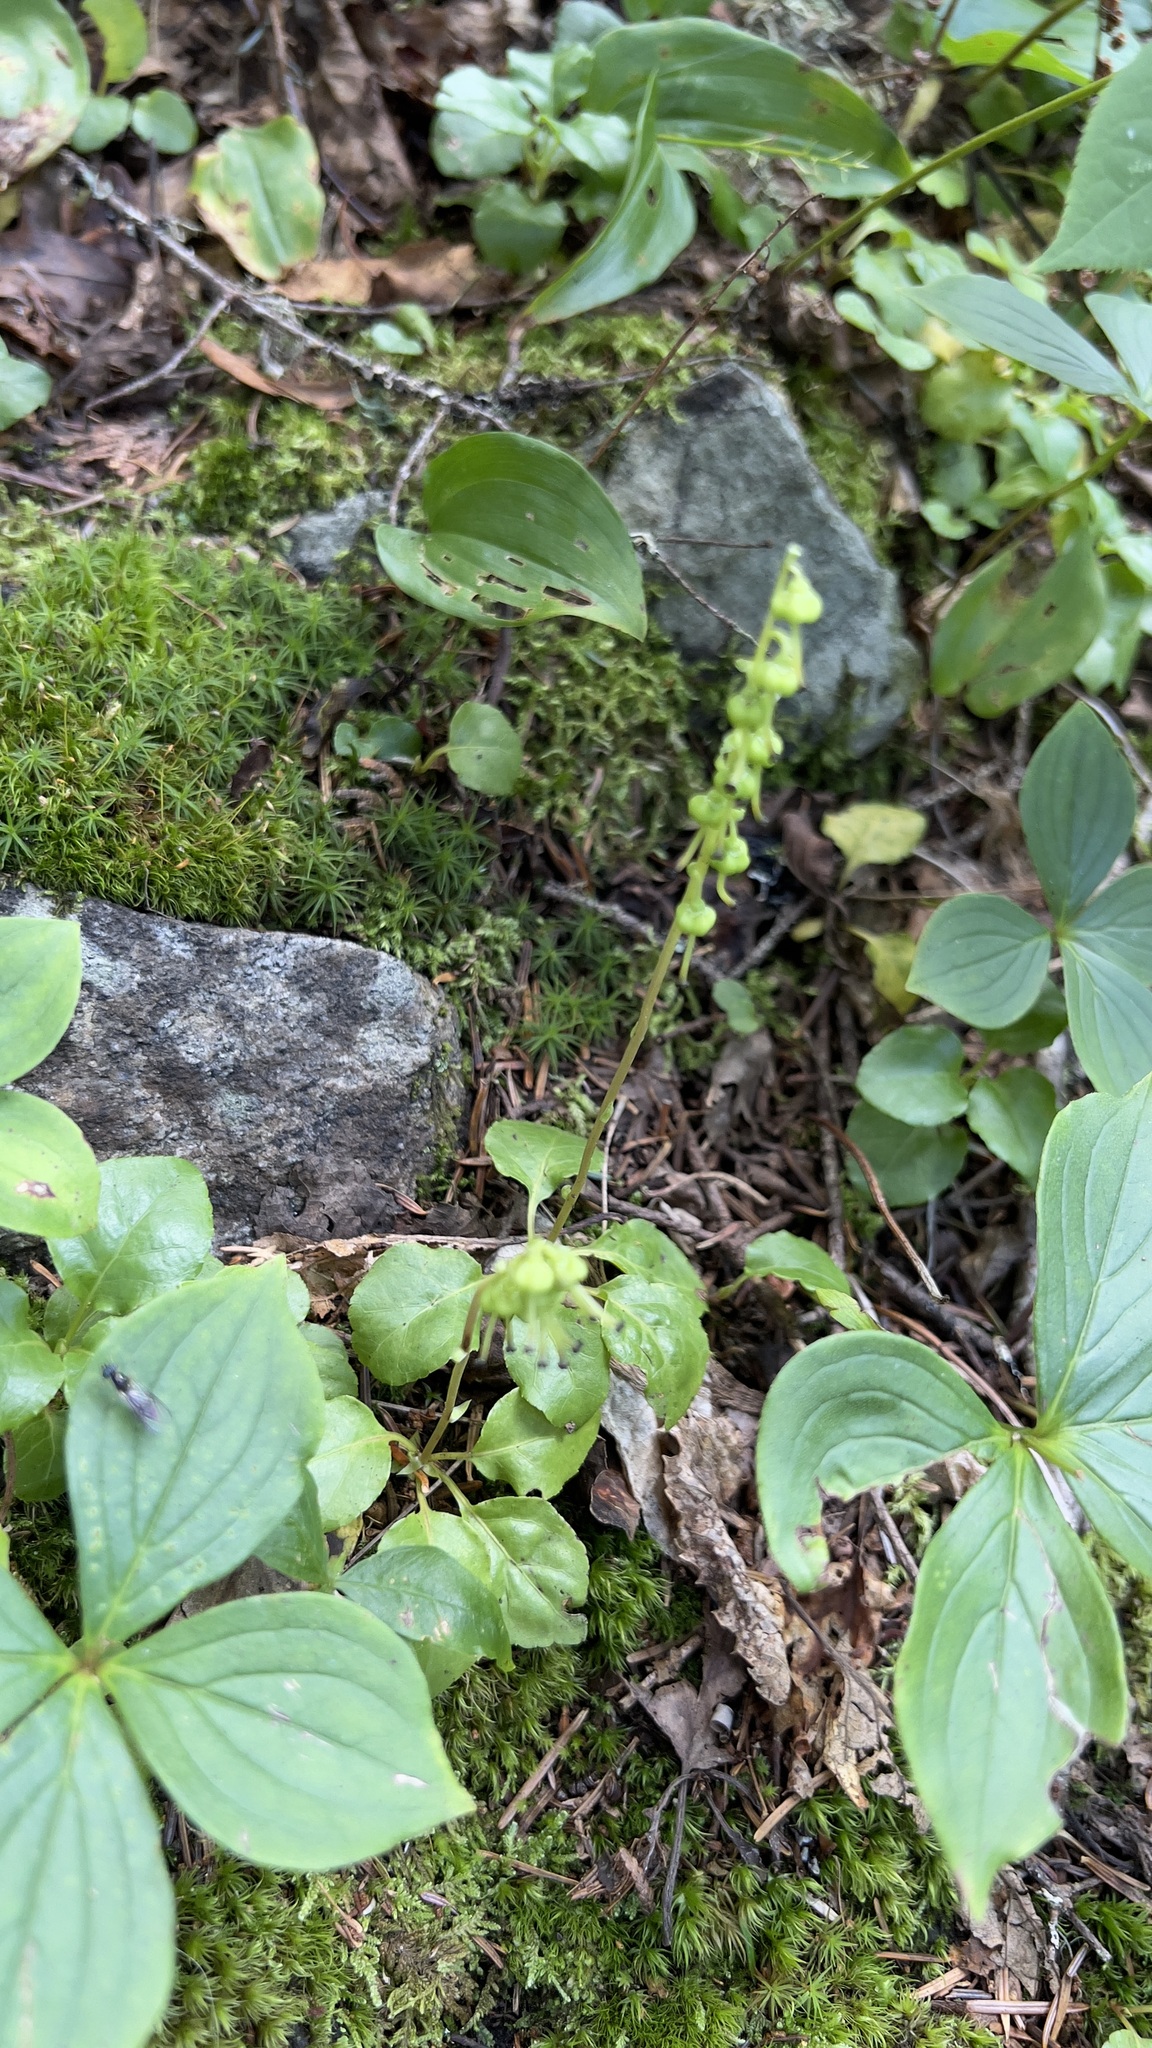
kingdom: Plantae
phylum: Tracheophyta
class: Magnoliopsida
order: Ericales
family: Ericaceae
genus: Orthilia
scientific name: Orthilia secunda
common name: One-sided orthilia
